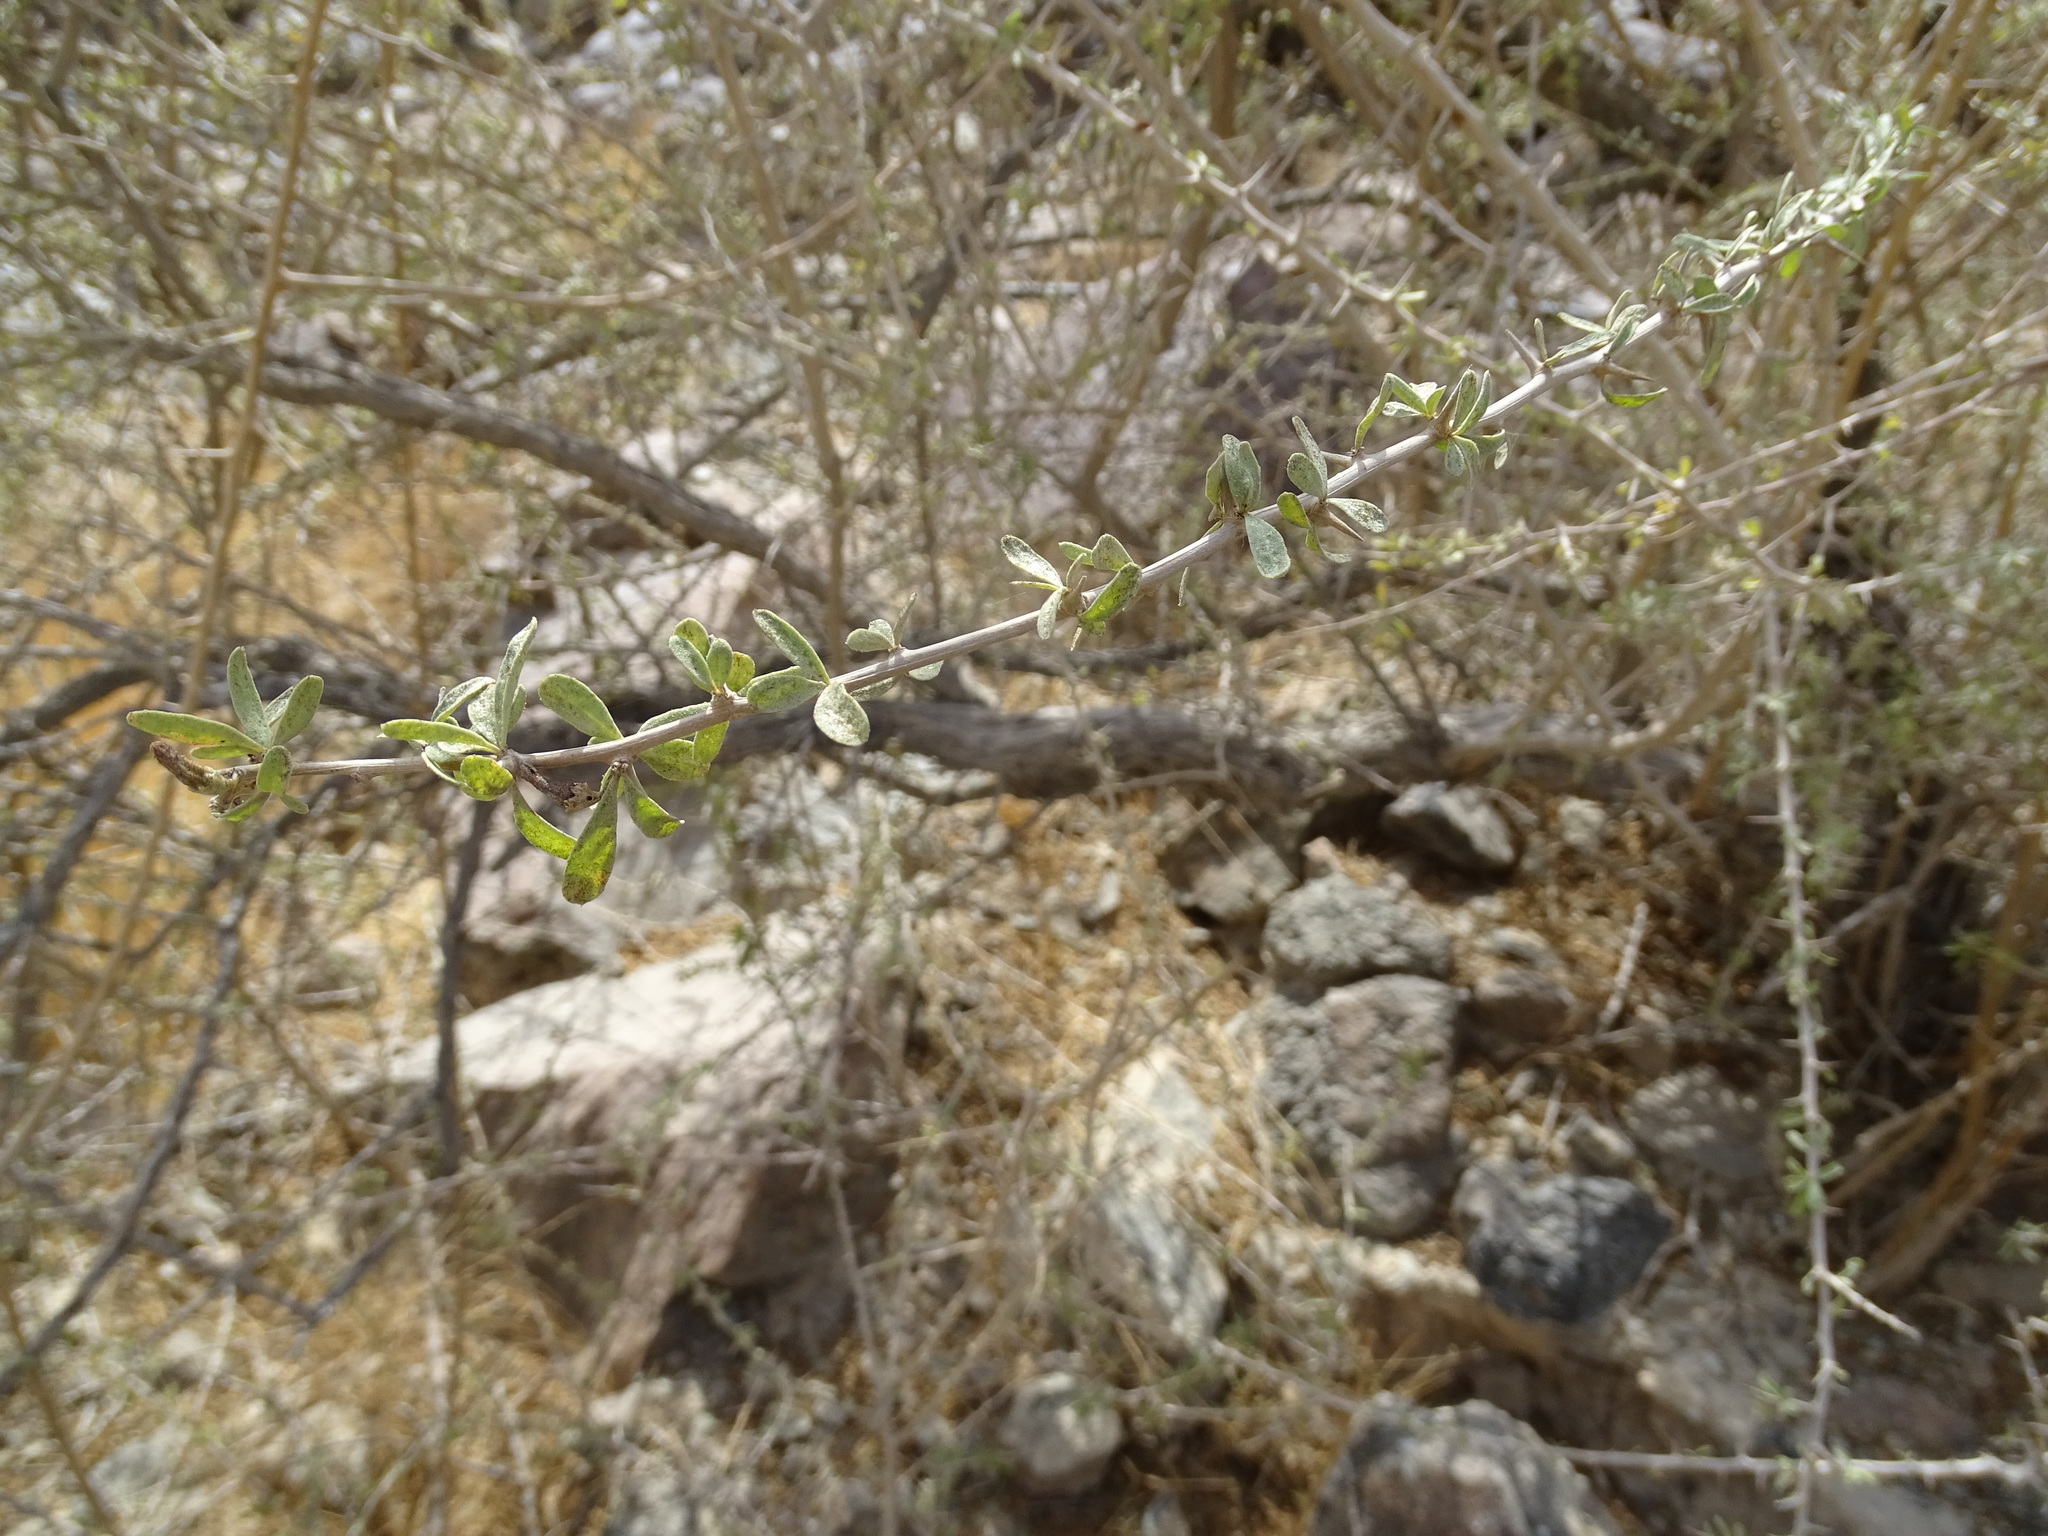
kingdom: Plantae
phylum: Tracheophyta
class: Magnoliopsida
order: Solanales
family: Solanaceae
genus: Lycium
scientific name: Lycium shawii
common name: Boxthorn
